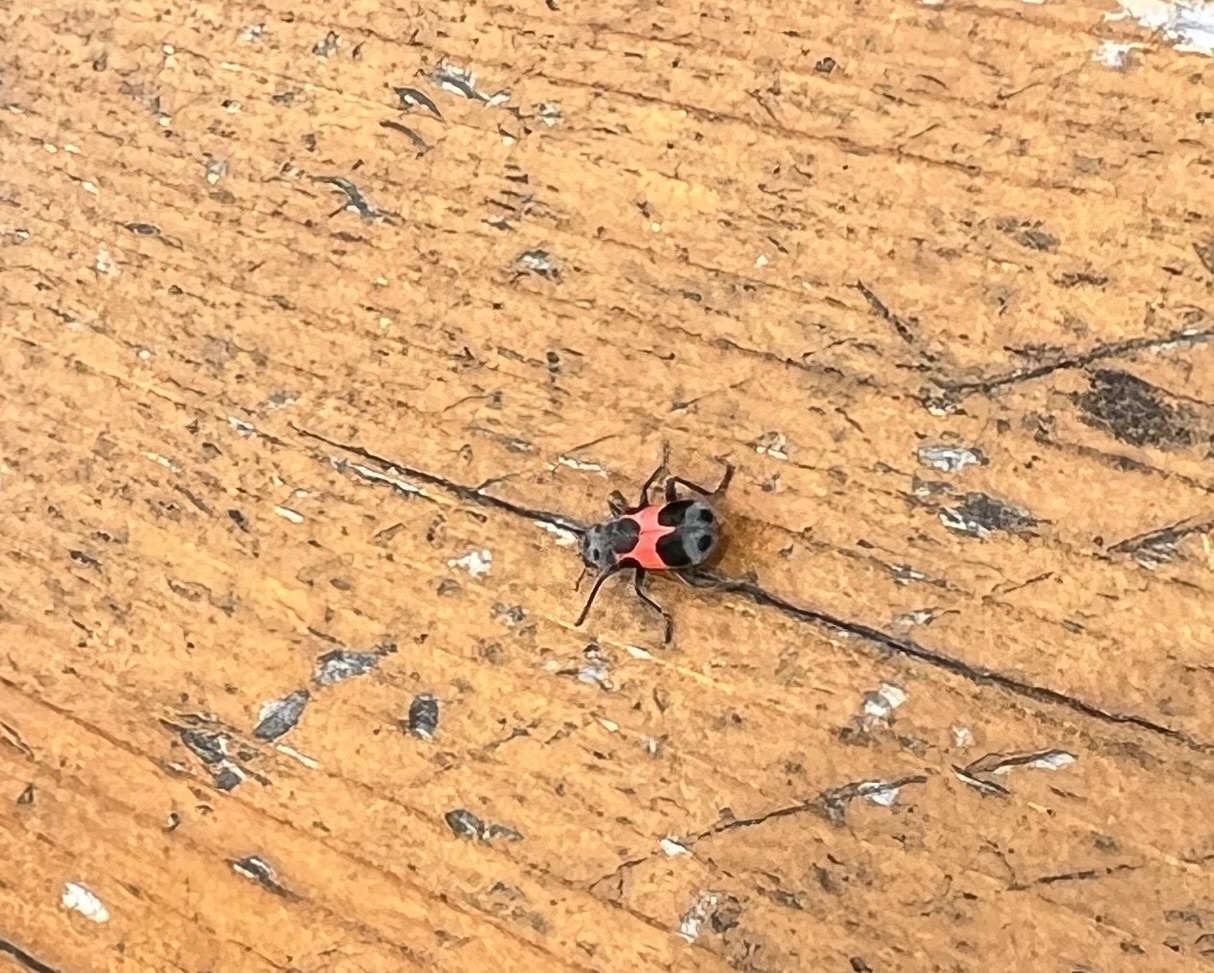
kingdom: Animalia
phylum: Arthropoda
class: Insecta
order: Coleoptera
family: Cleridae
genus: Enoclerus
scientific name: Enoclerus eximius
